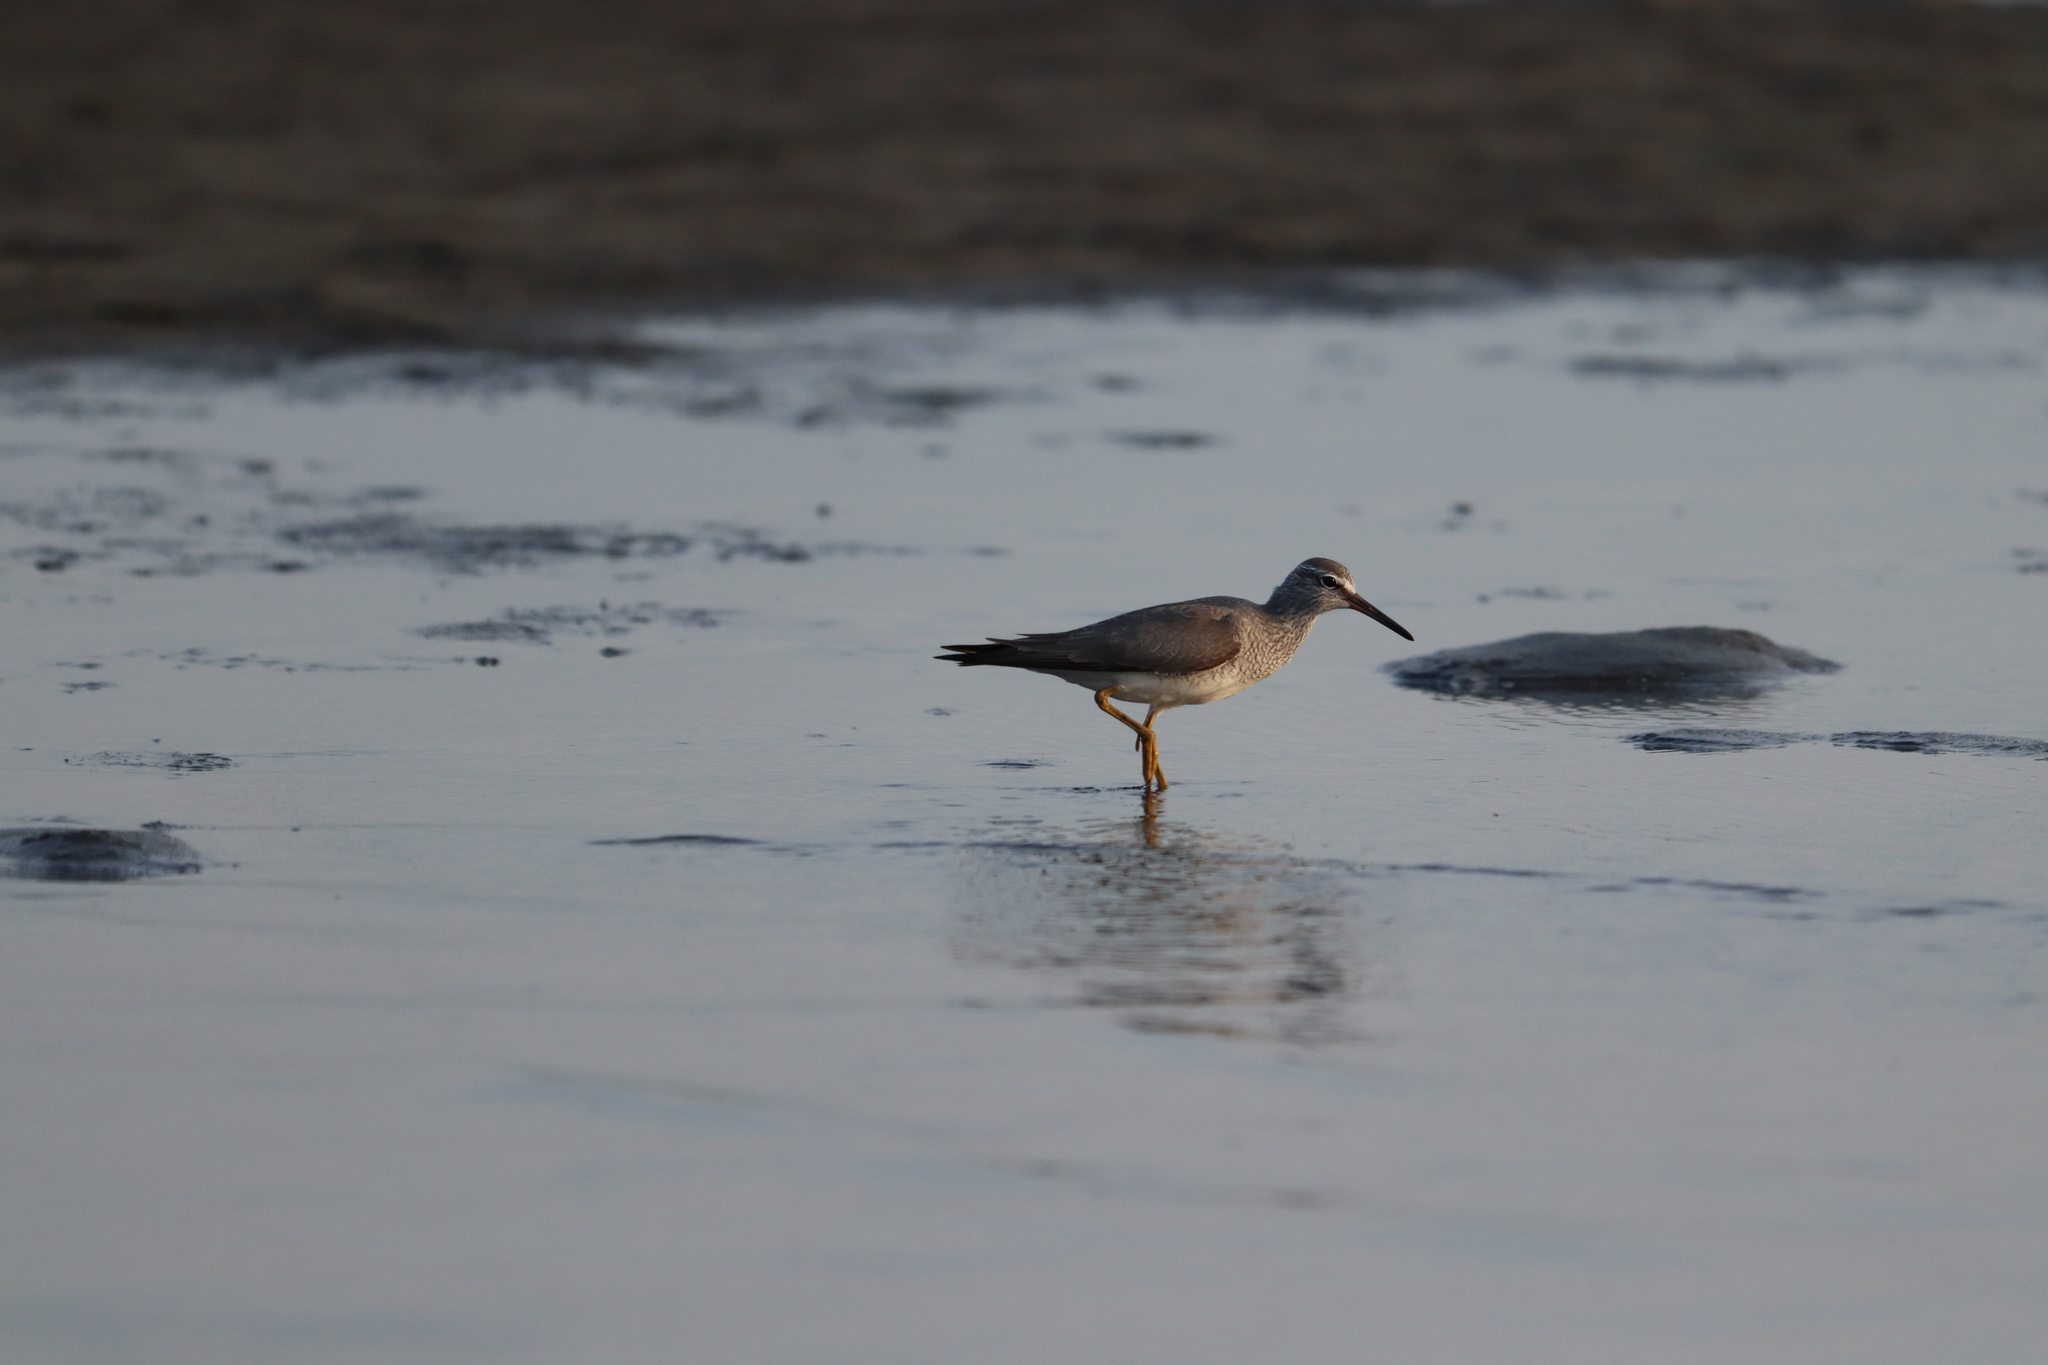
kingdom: Animalia
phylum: Chordata
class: Aves
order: Charadriiformes
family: Scolopacidae
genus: Tringa
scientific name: Tringa brevipes
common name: Grey-tailed tattler
